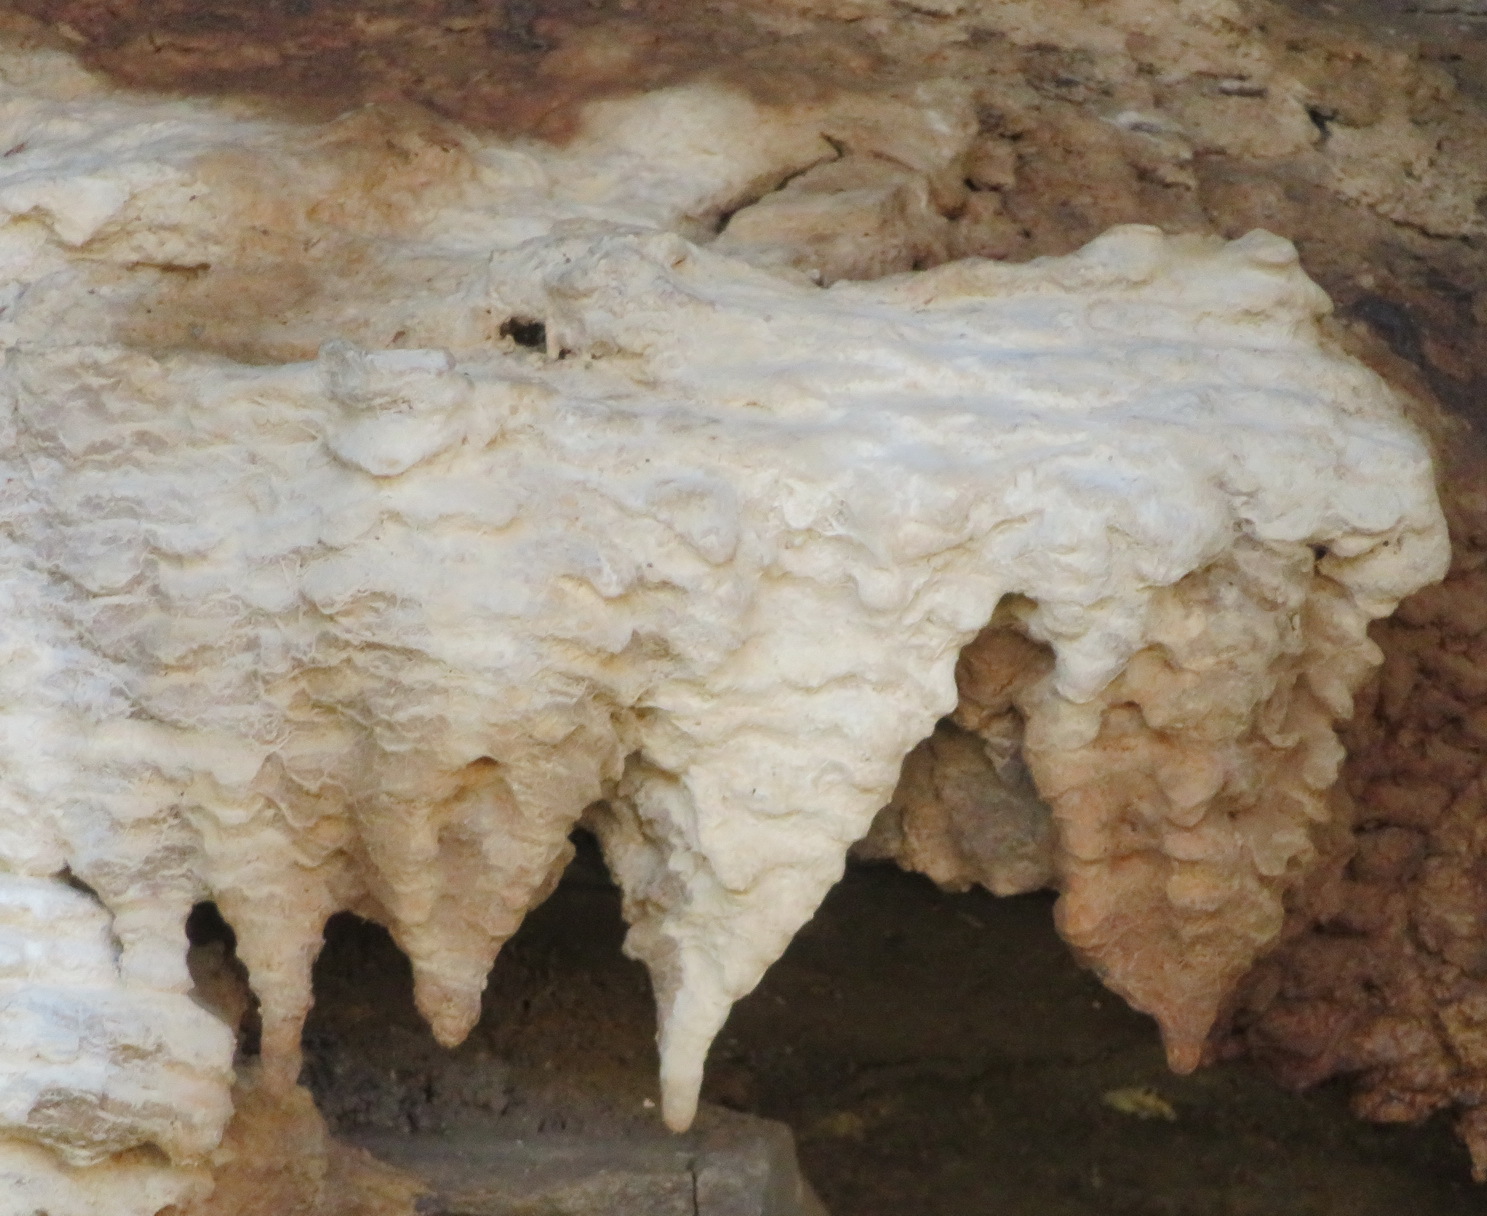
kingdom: Animalia
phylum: Chordata
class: Mammalia
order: Hyracoidea
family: Procaviidae
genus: Procavia
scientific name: Procavia capensis
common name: Rock hyrax
